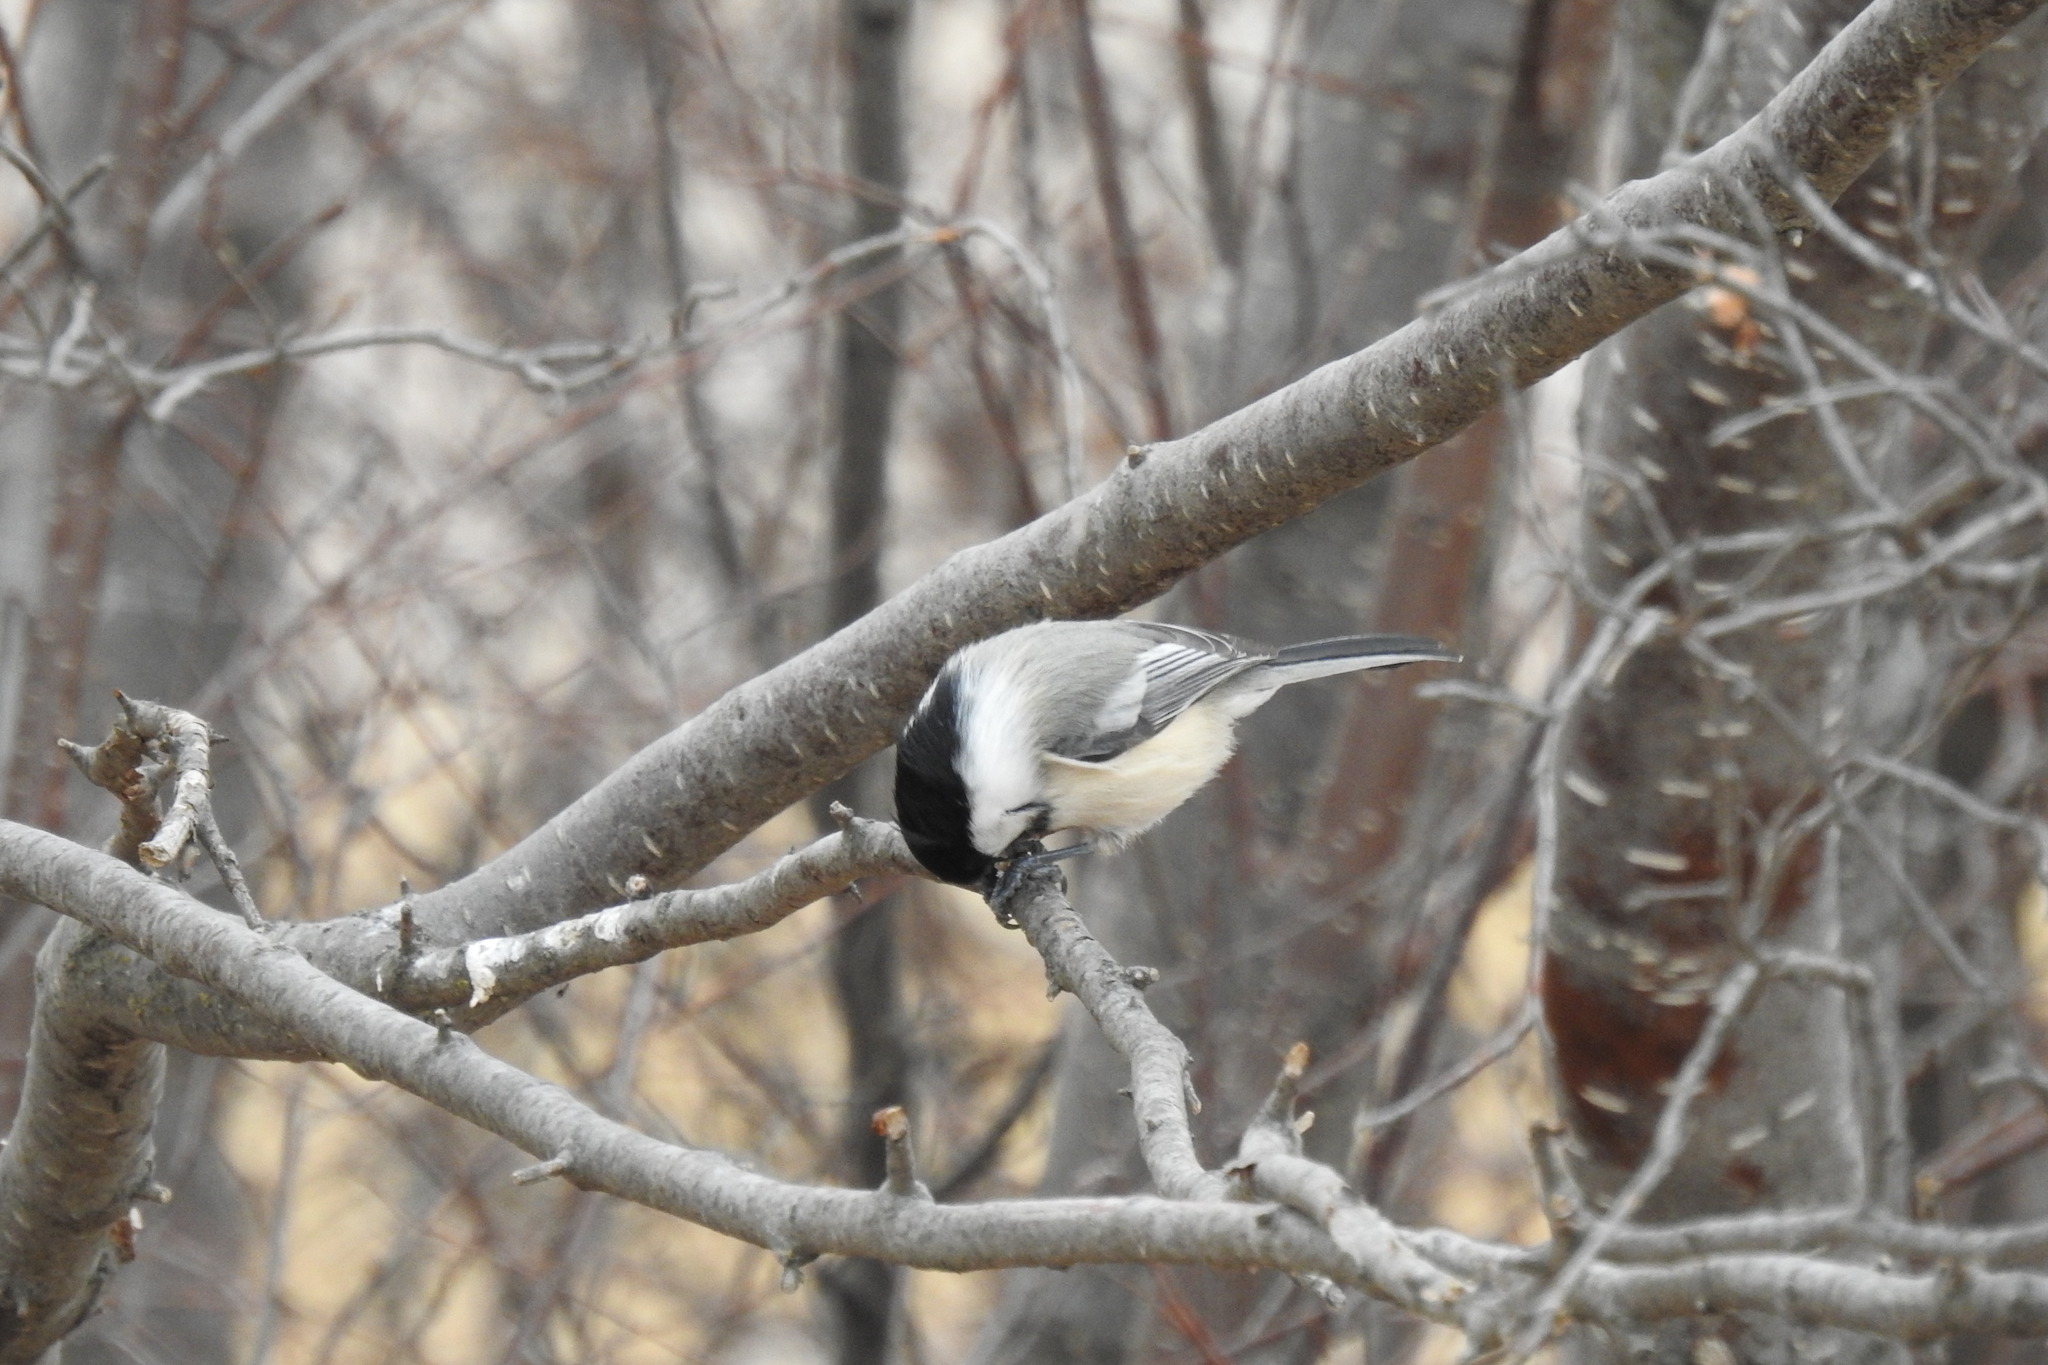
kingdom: Animalia
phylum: Chordata
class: Aves
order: Passeriformes
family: Paridae
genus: Poecile
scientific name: Poecile atricapillus
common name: Black-capped chickadee
